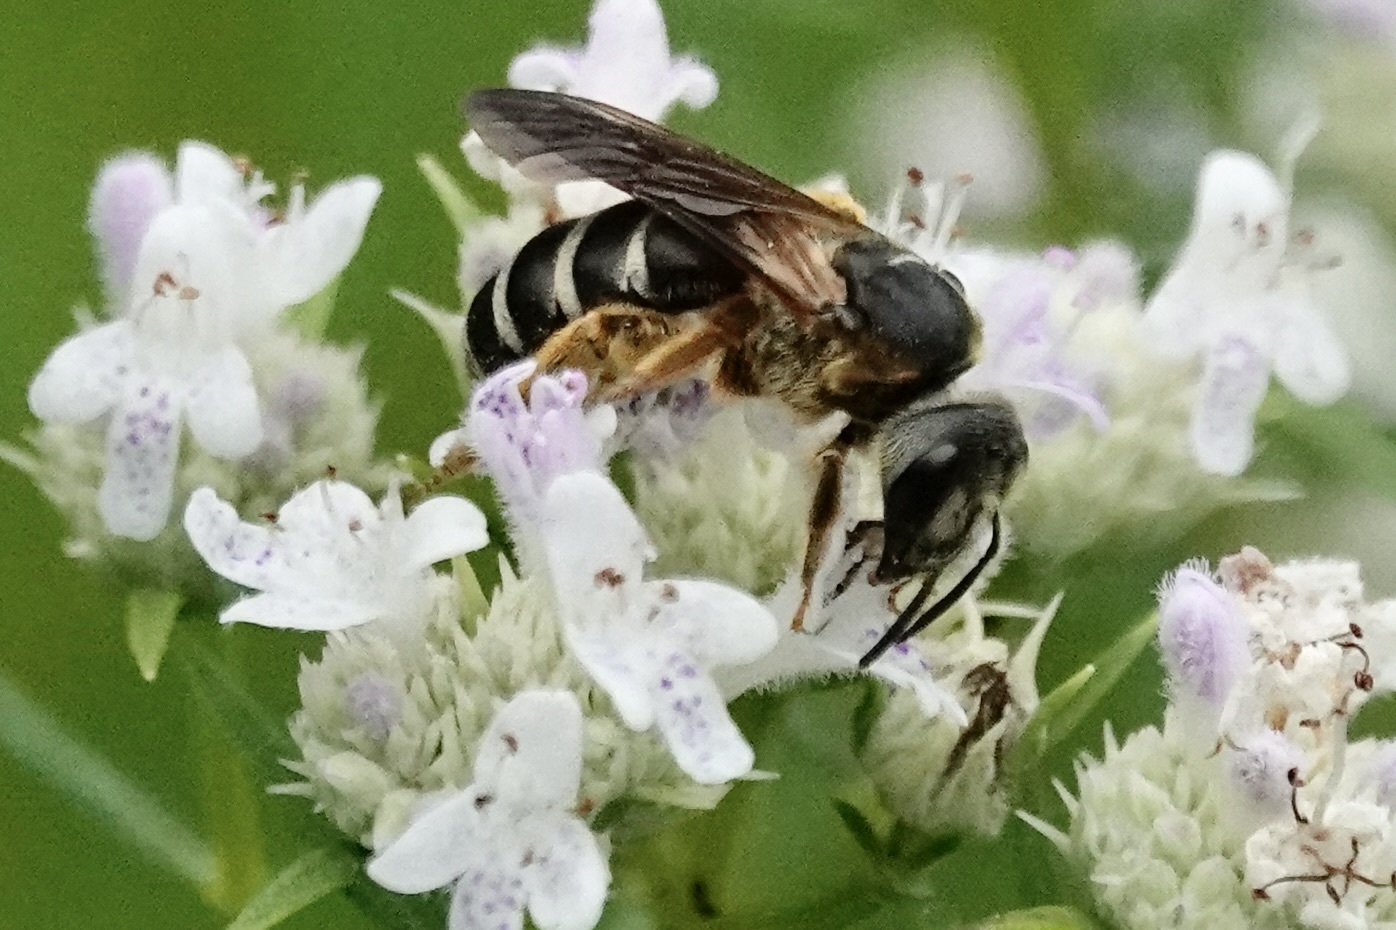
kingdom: Animalia
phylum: Arthropoda
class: Insecta
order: Hymenoptera
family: Halictidae
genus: Halictus
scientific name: Halictus parallelus
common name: Parallel-striped sweat bee
